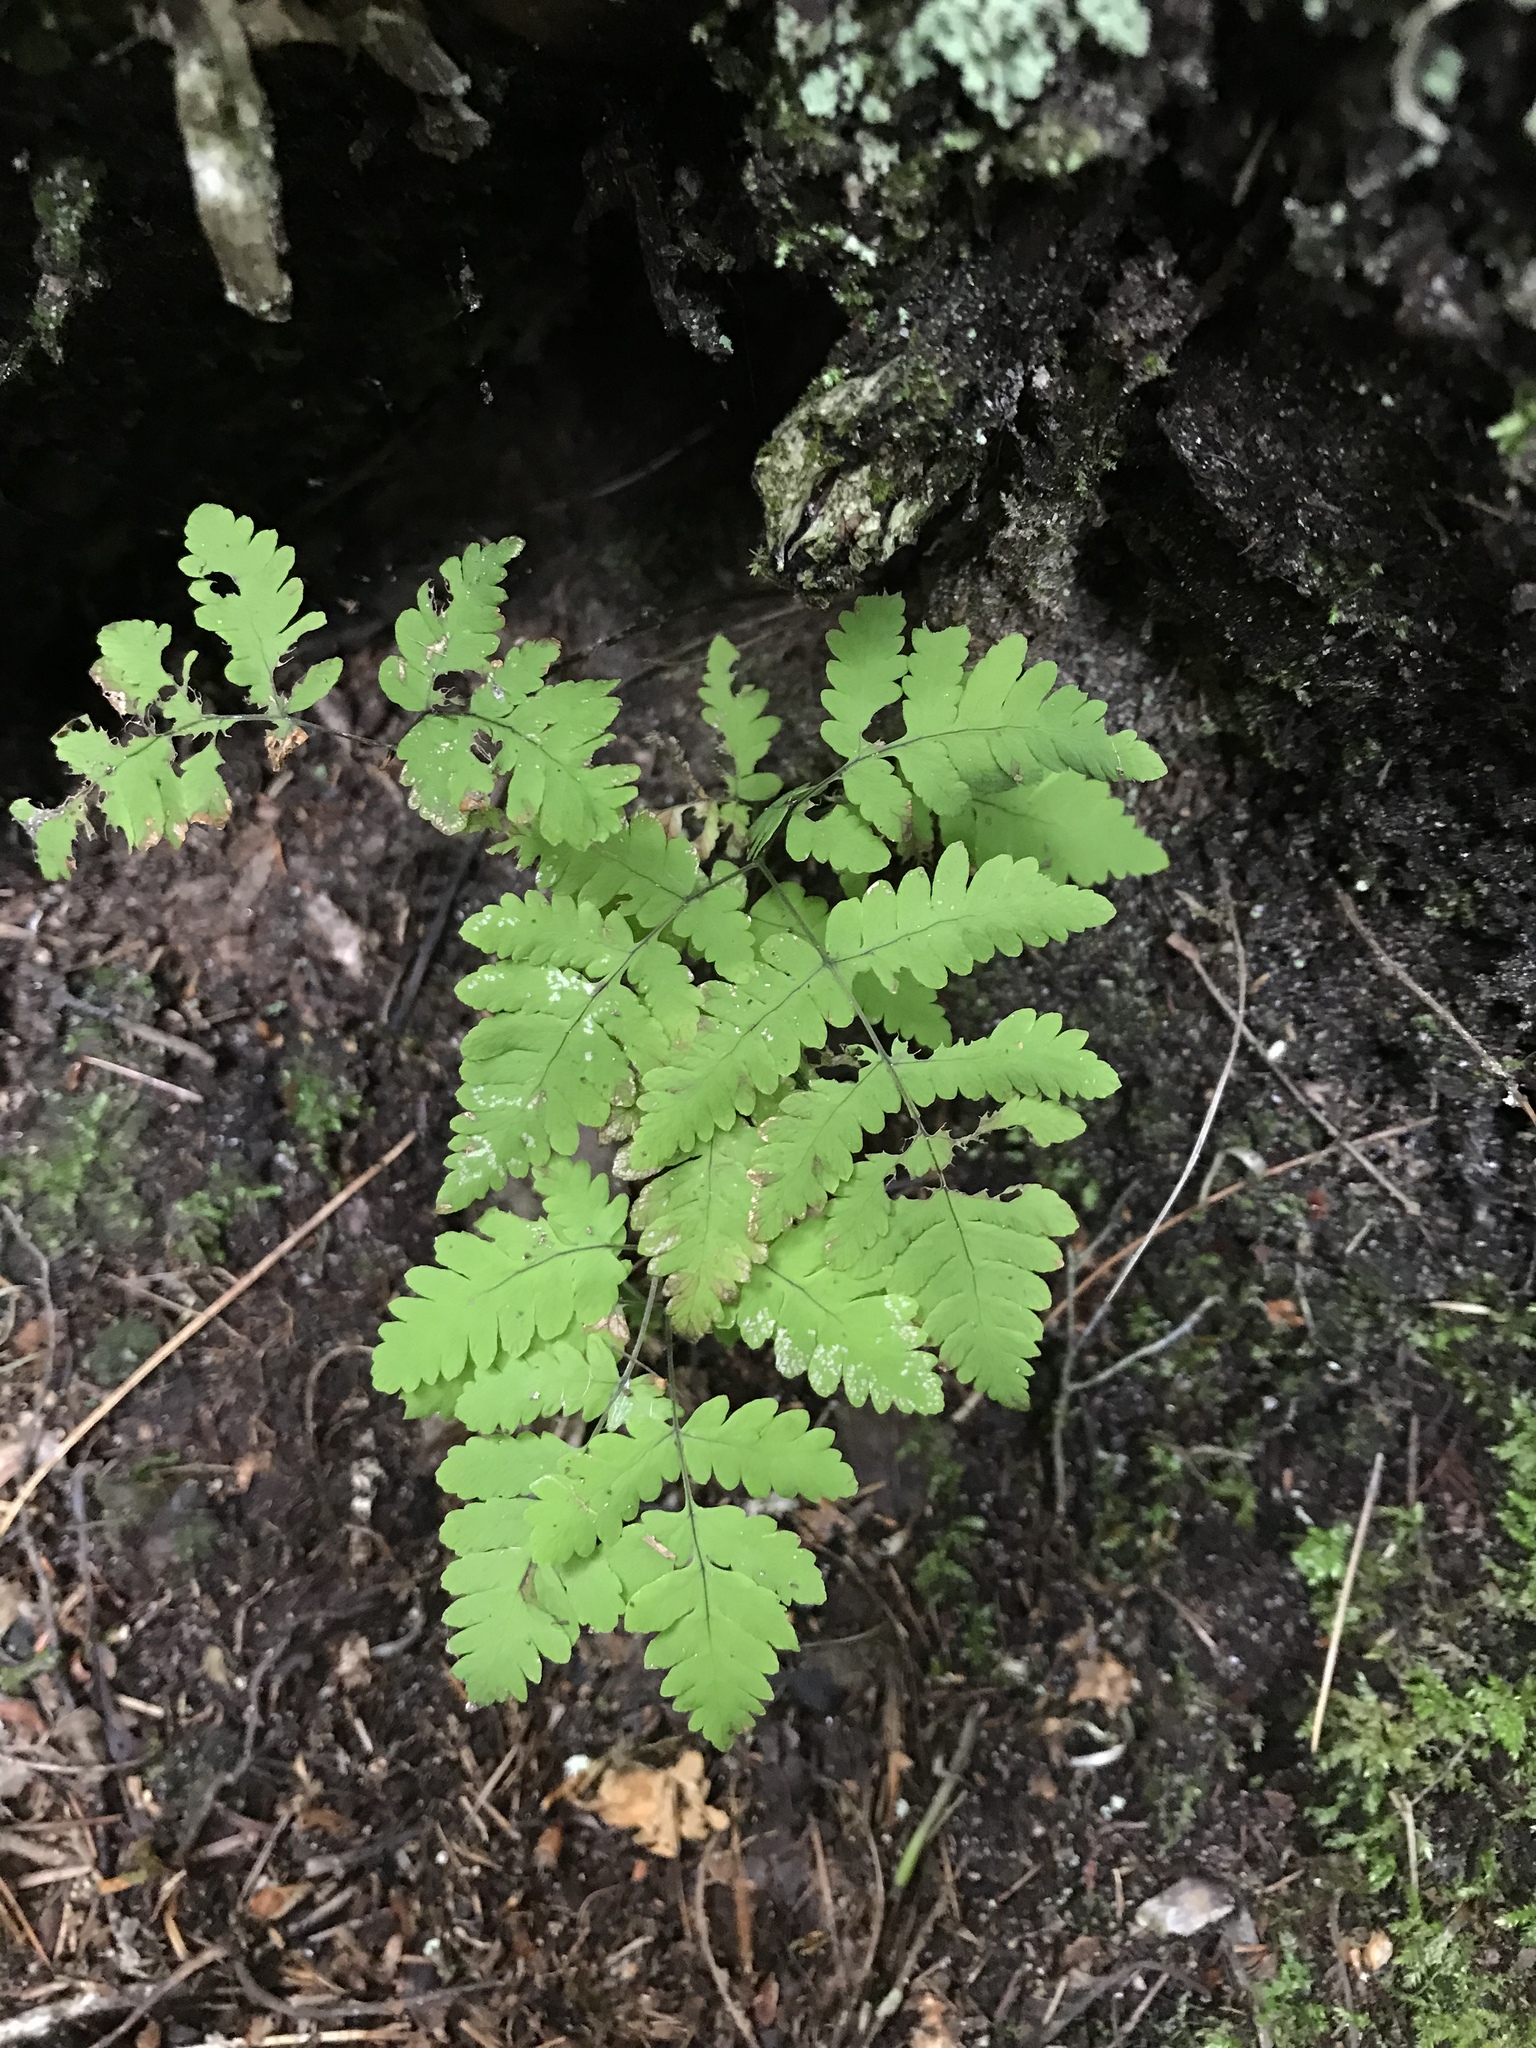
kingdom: Plantae
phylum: Tracheophyta
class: Polypodiopsida
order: Polypodiales
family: Cystopteridaceae
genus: Gymnocarpium
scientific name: Gymnocarpium dryopteris
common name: Oak fern
